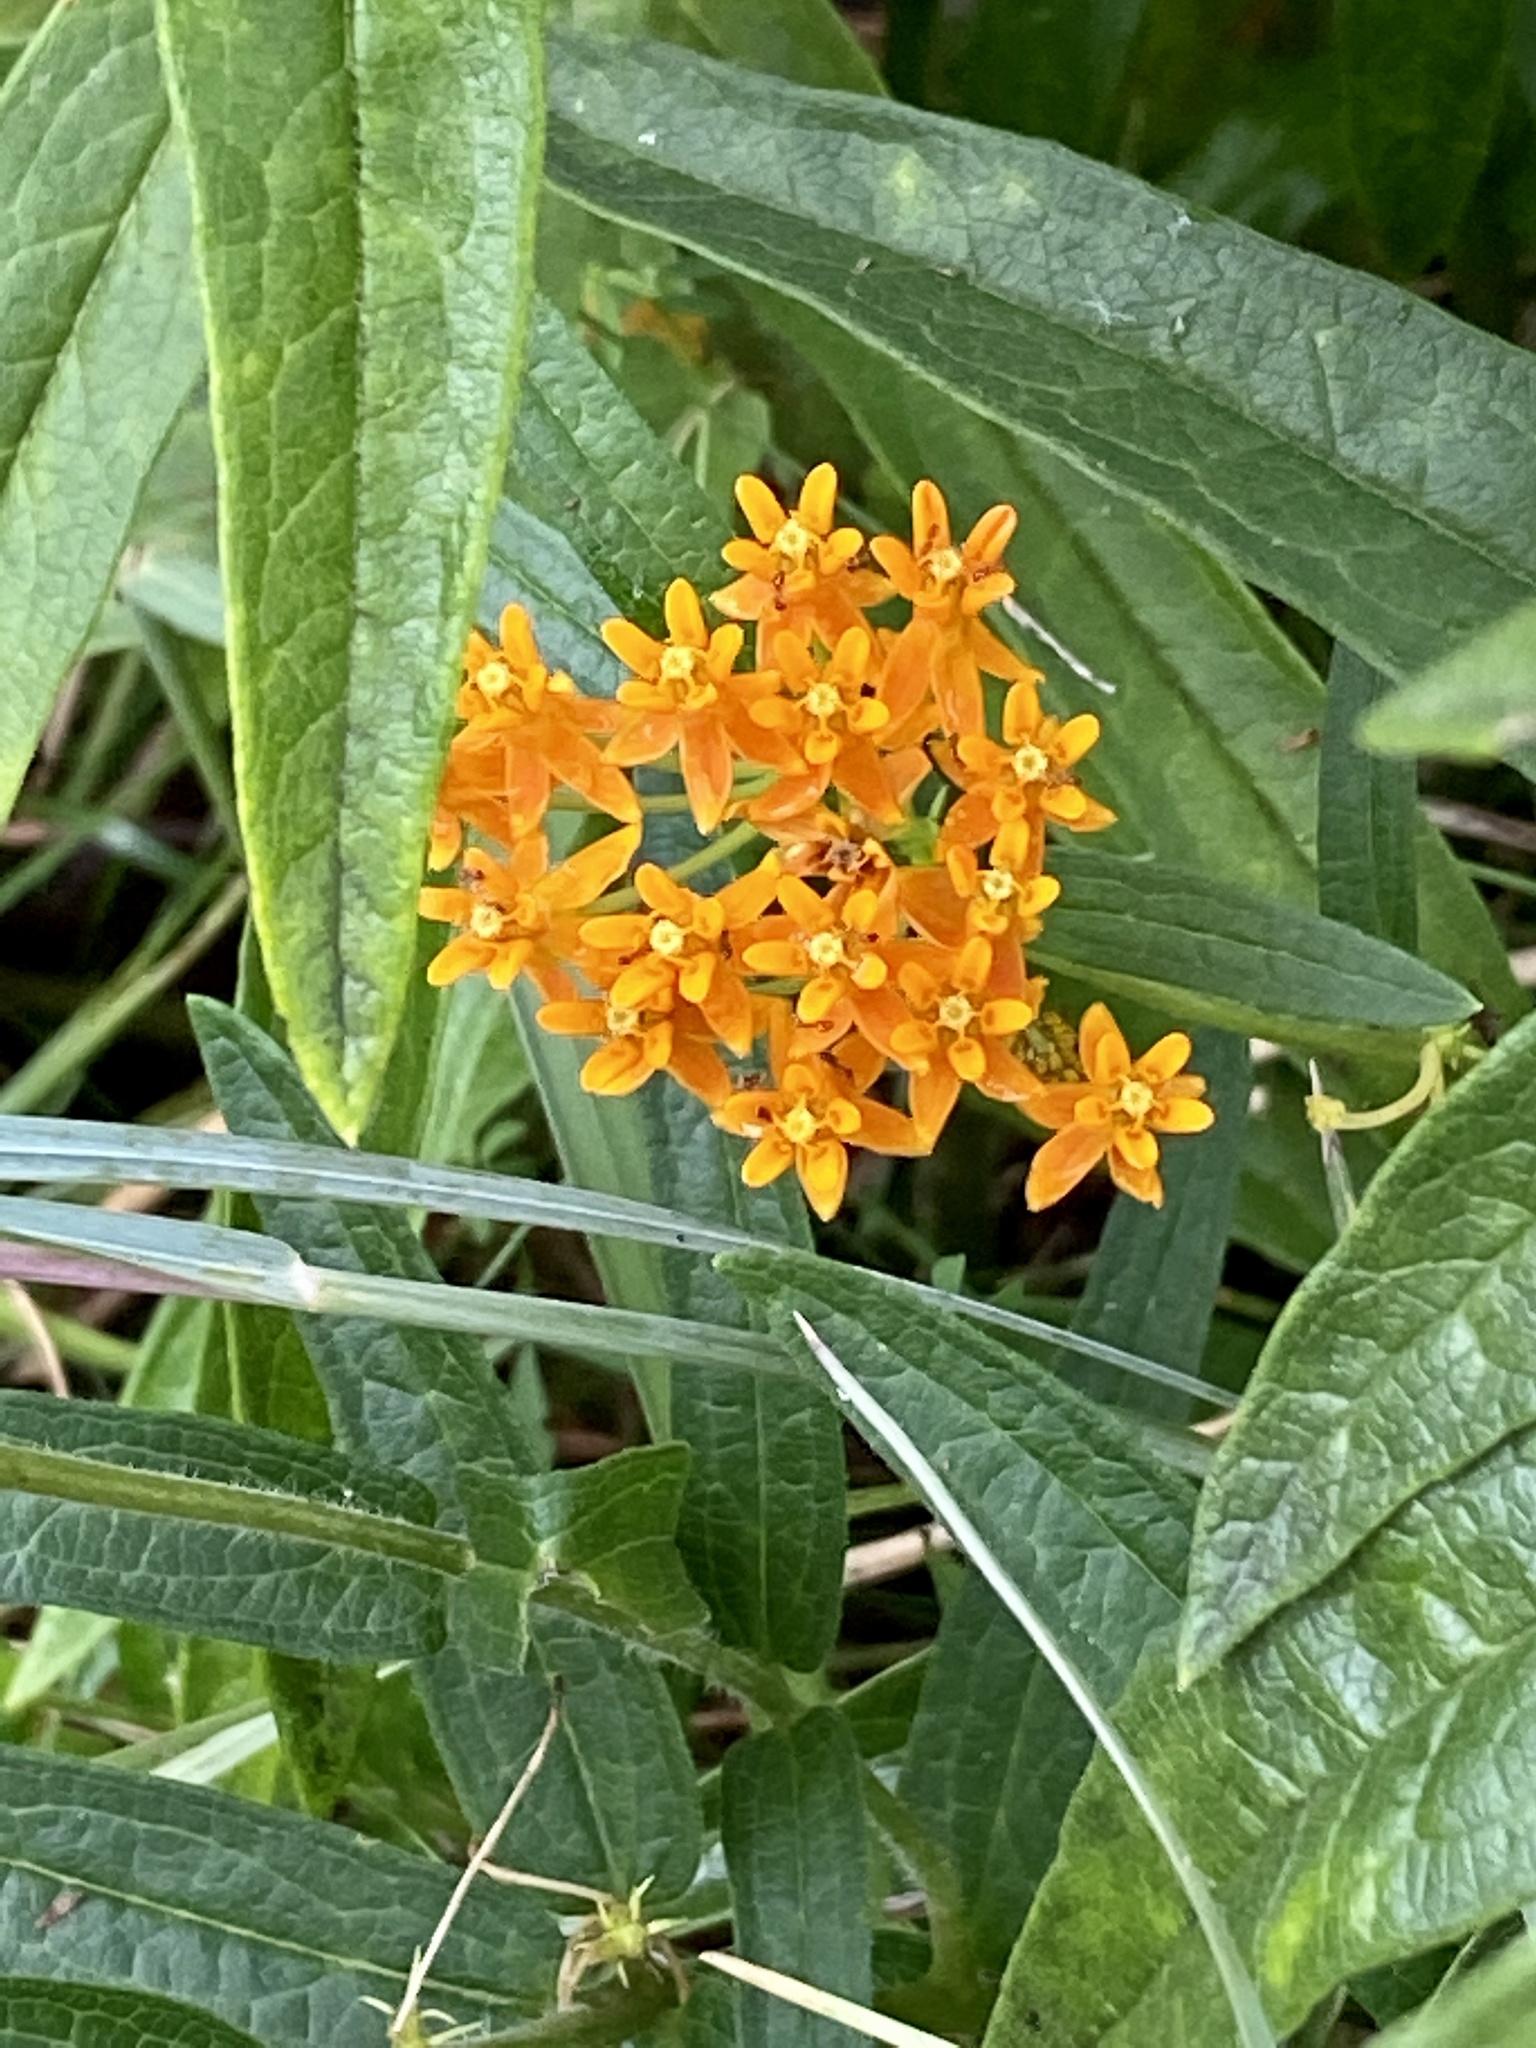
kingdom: Plantae
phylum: Tracheophyta
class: Magnoliopsida
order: Gentianales
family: Apocynaceae
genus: Asclepias
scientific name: Asclepias tuberosa
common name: Butterfly milkweed
